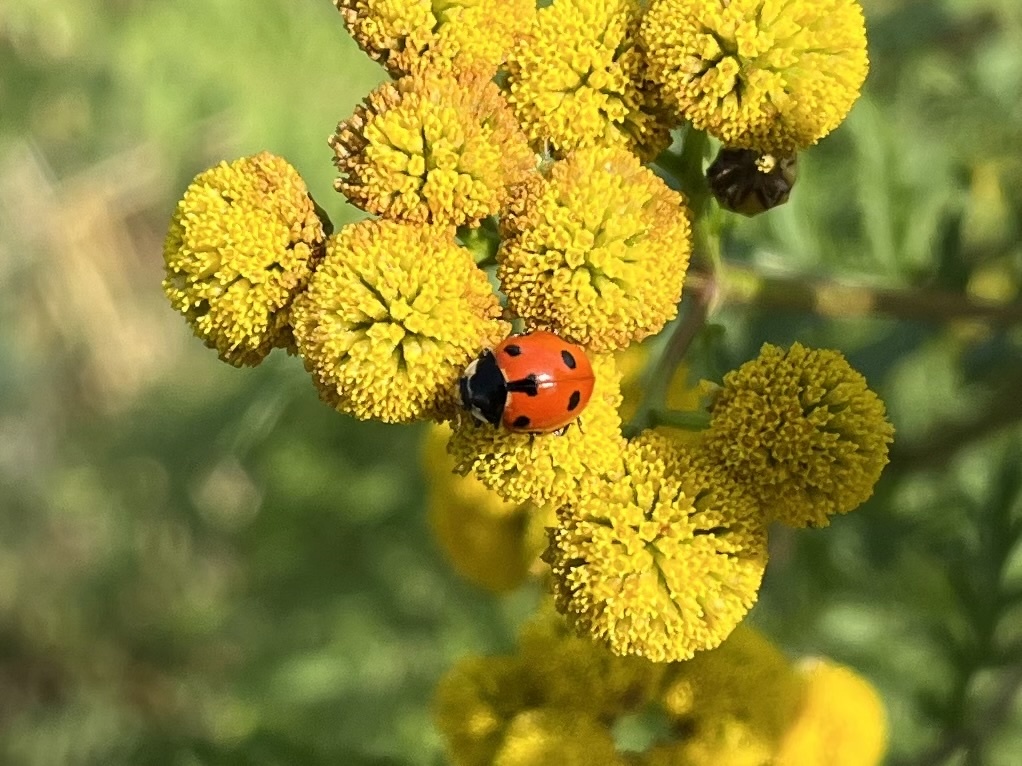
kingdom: Animalia
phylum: Arthropoda
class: Insecta
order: Coleoptera
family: Coccinellidae
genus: Ceratomegilla
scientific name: Ceratomegilla undecimnotata
